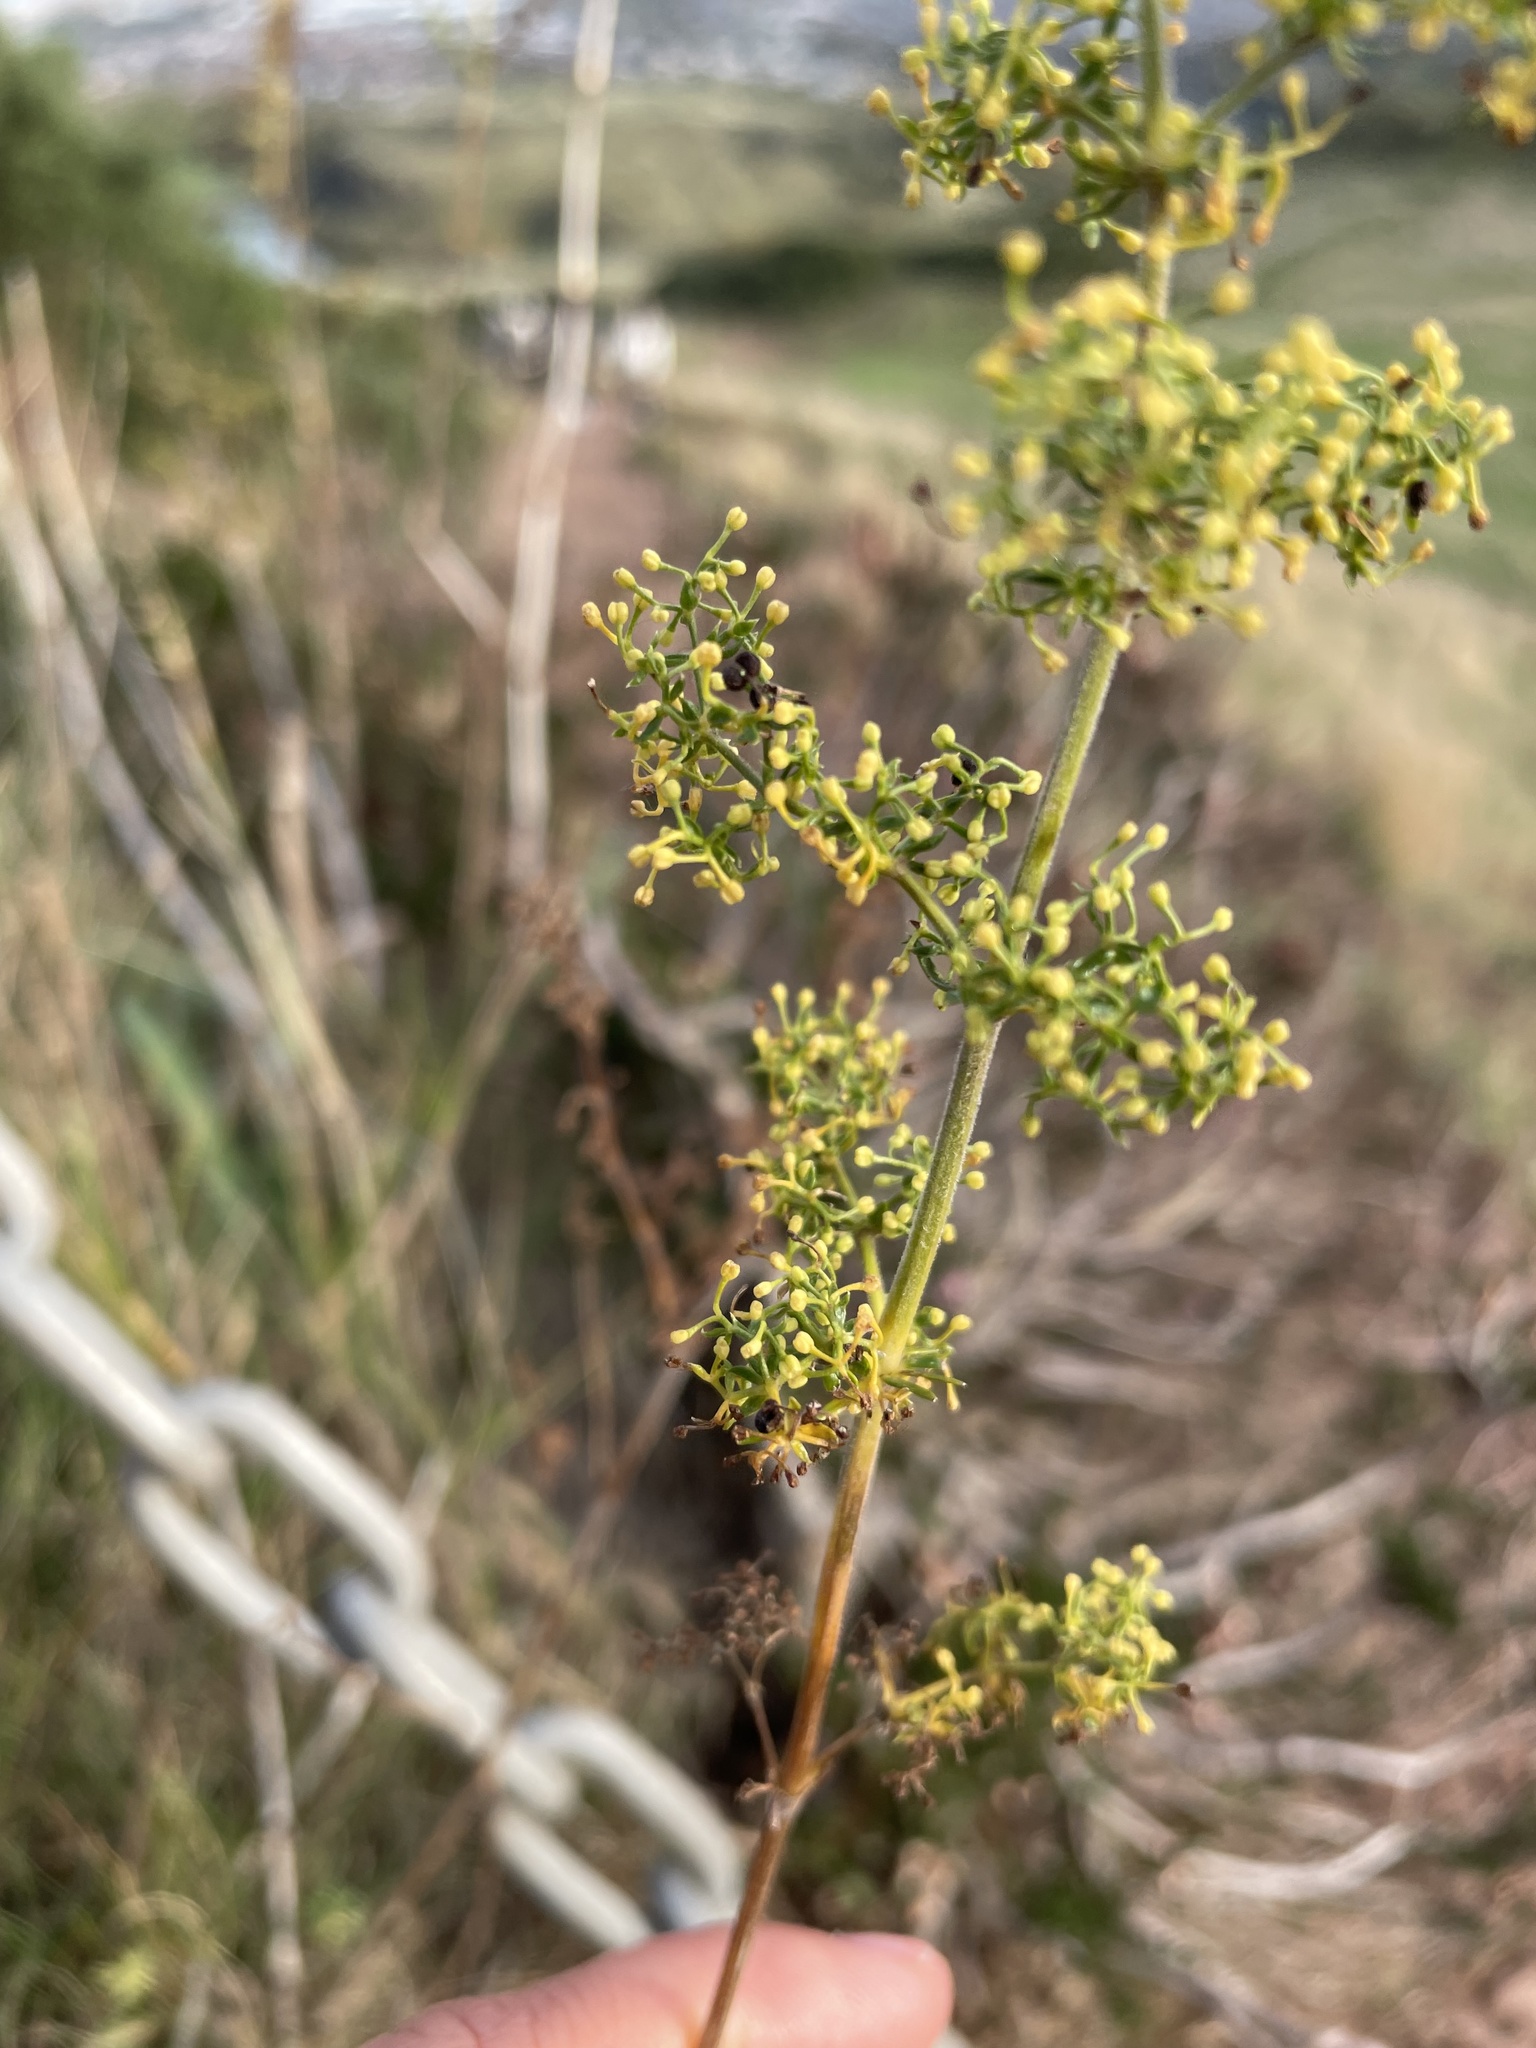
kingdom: Plantae
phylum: Tracheophyta
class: Magnoliopsida
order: Gentianales
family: Rubiaceae
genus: Galium
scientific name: Galium verum
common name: Lady's bedstraw
